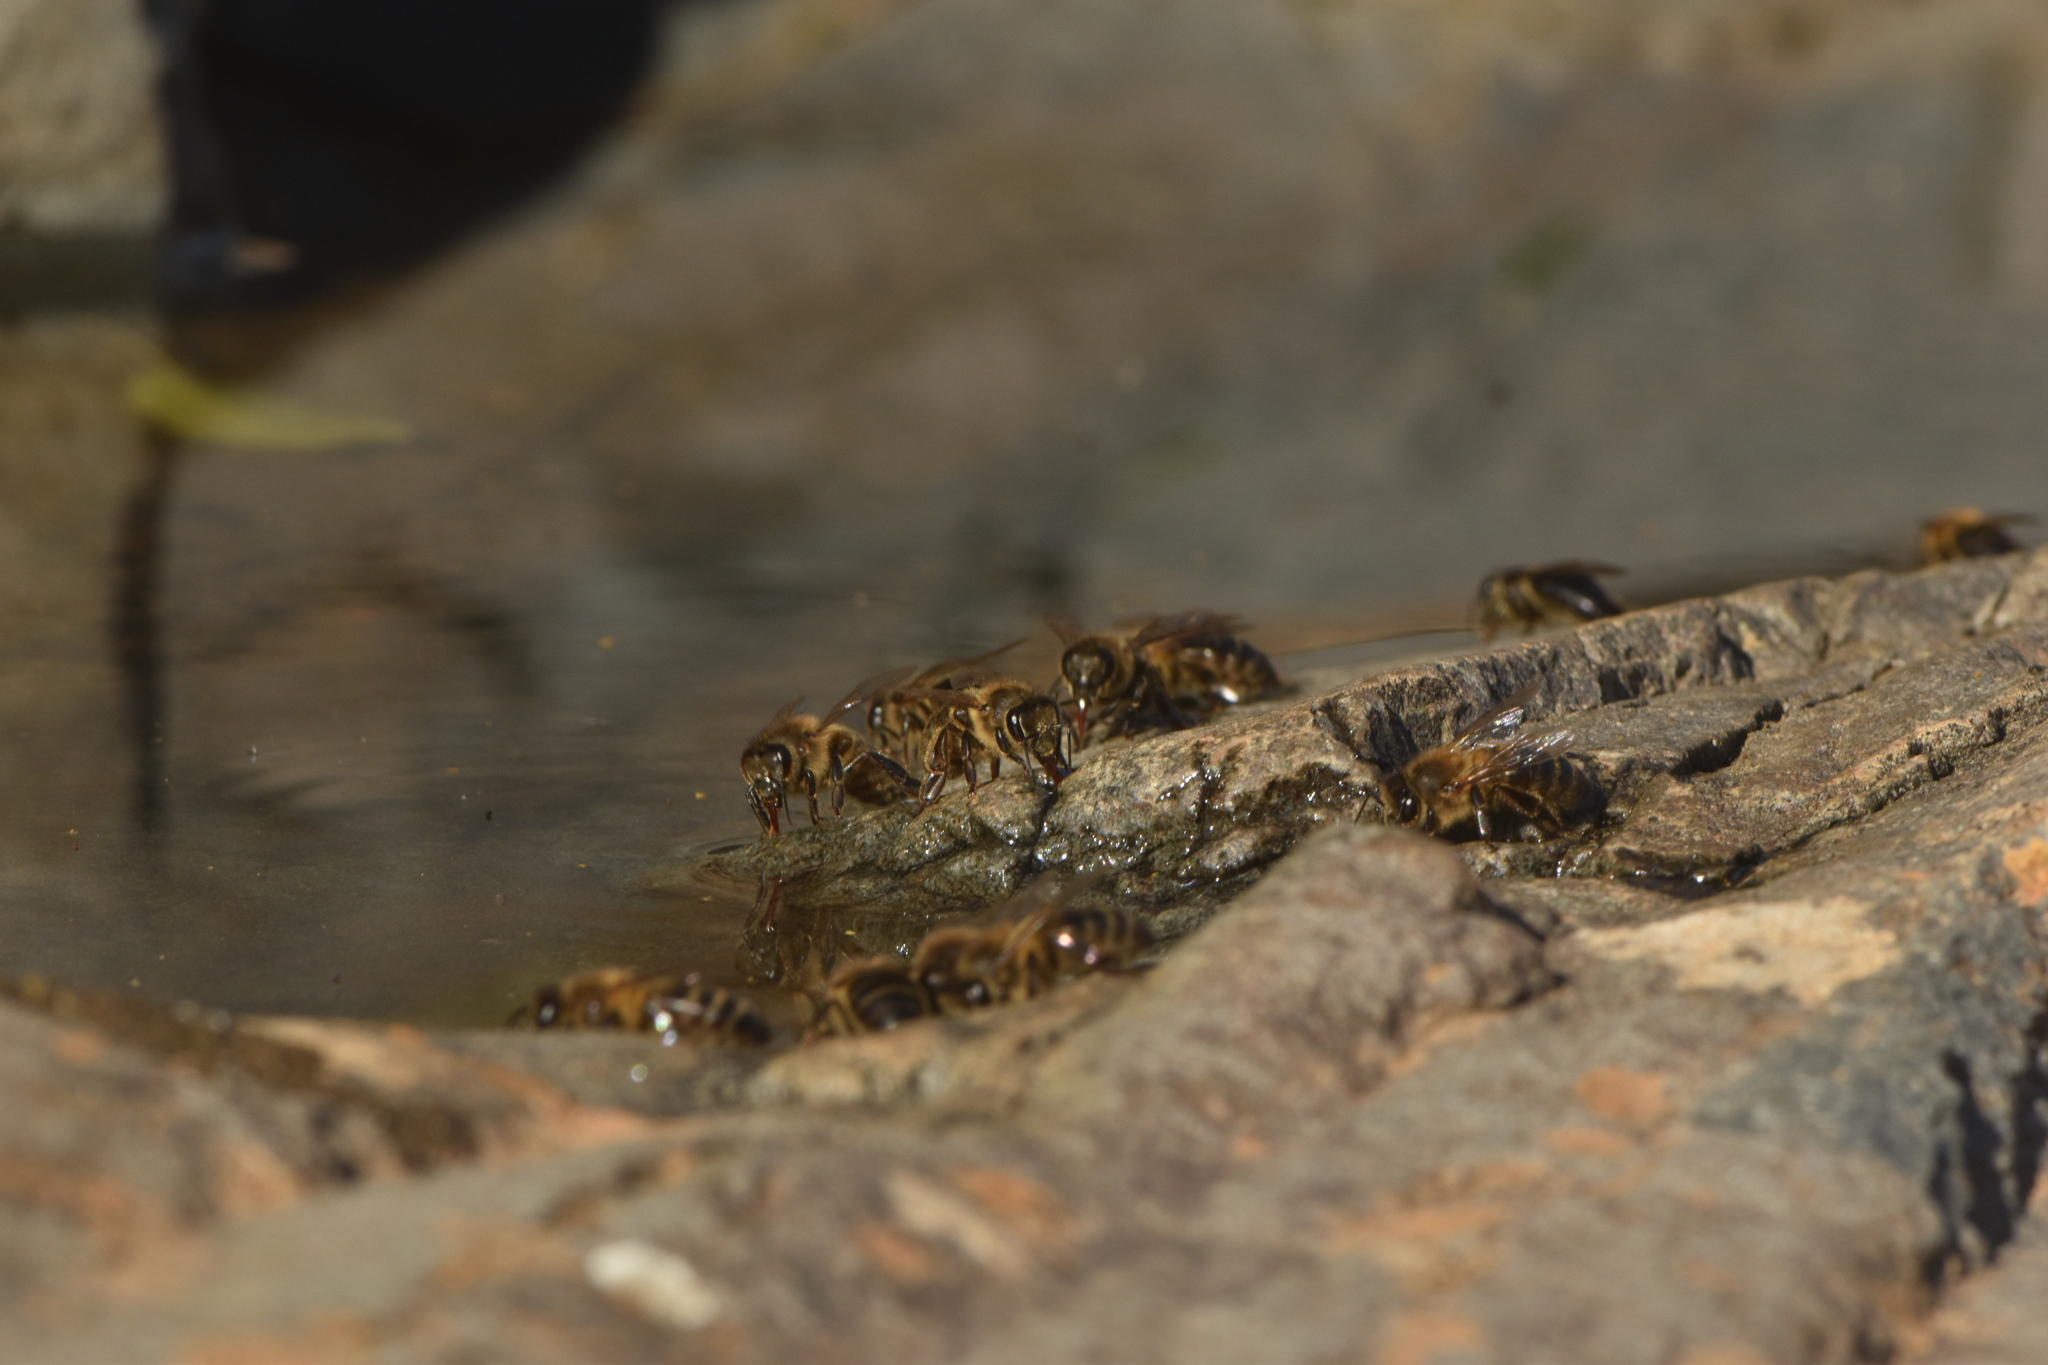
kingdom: Animalia
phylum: Arthropoda
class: Insecta
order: Hymenoptera
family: Apidae
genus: Apis
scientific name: Apis mellifera
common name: Honey bee
